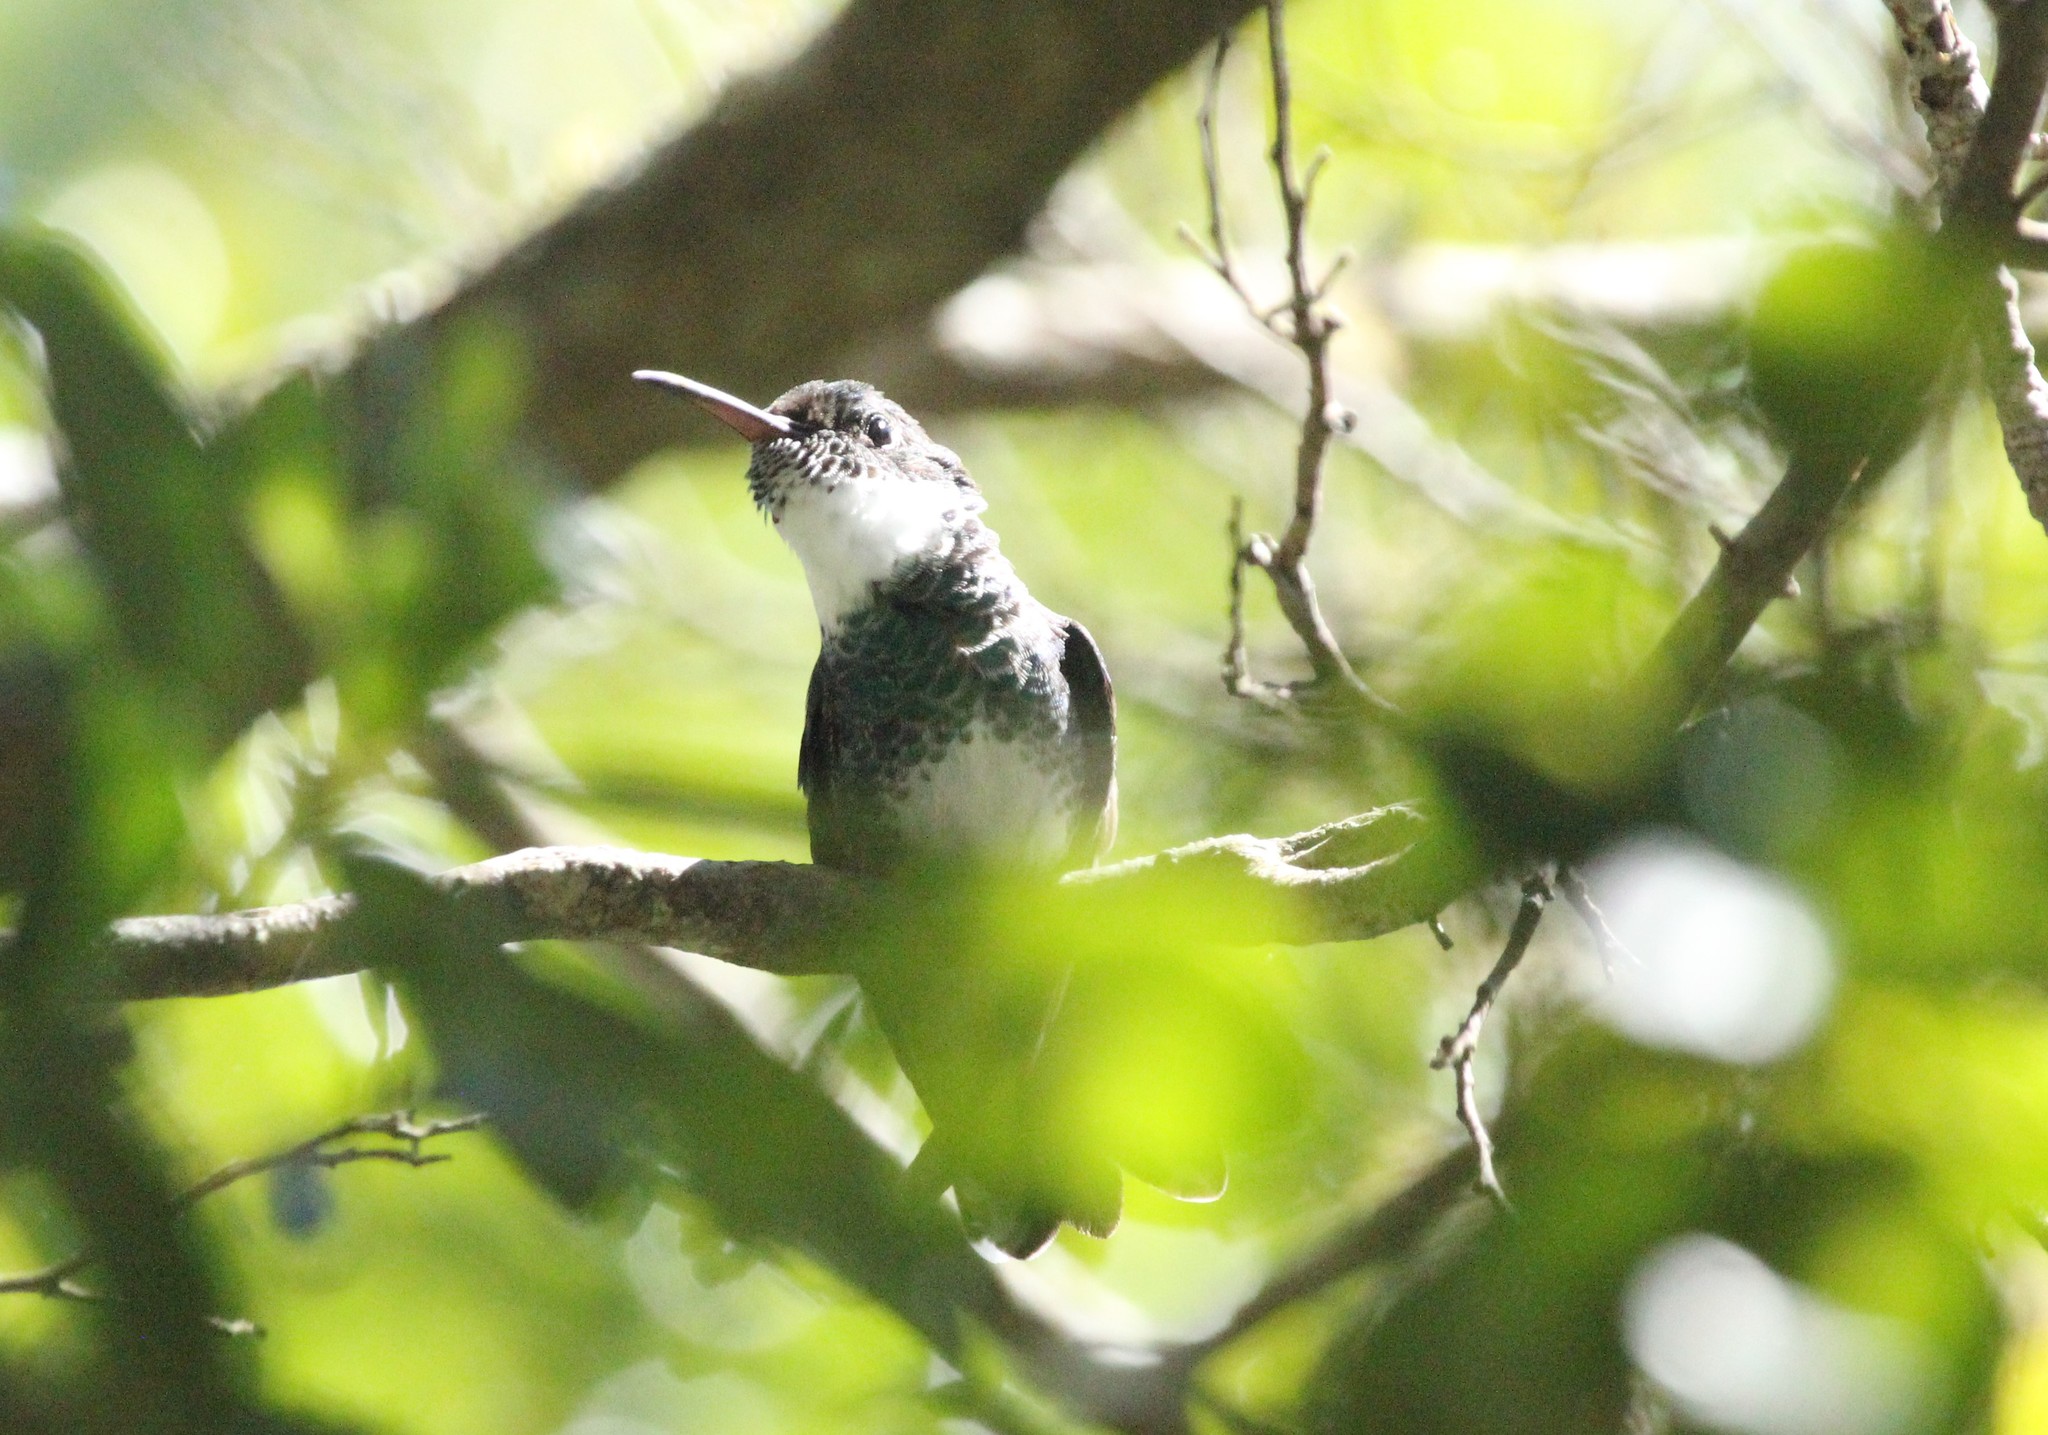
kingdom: Animalia
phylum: Chordata
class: Aves
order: Apodiformes
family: Trochilidae
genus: Leucochloris
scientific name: Leucochloris albicollis
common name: White-throated hummingbird
